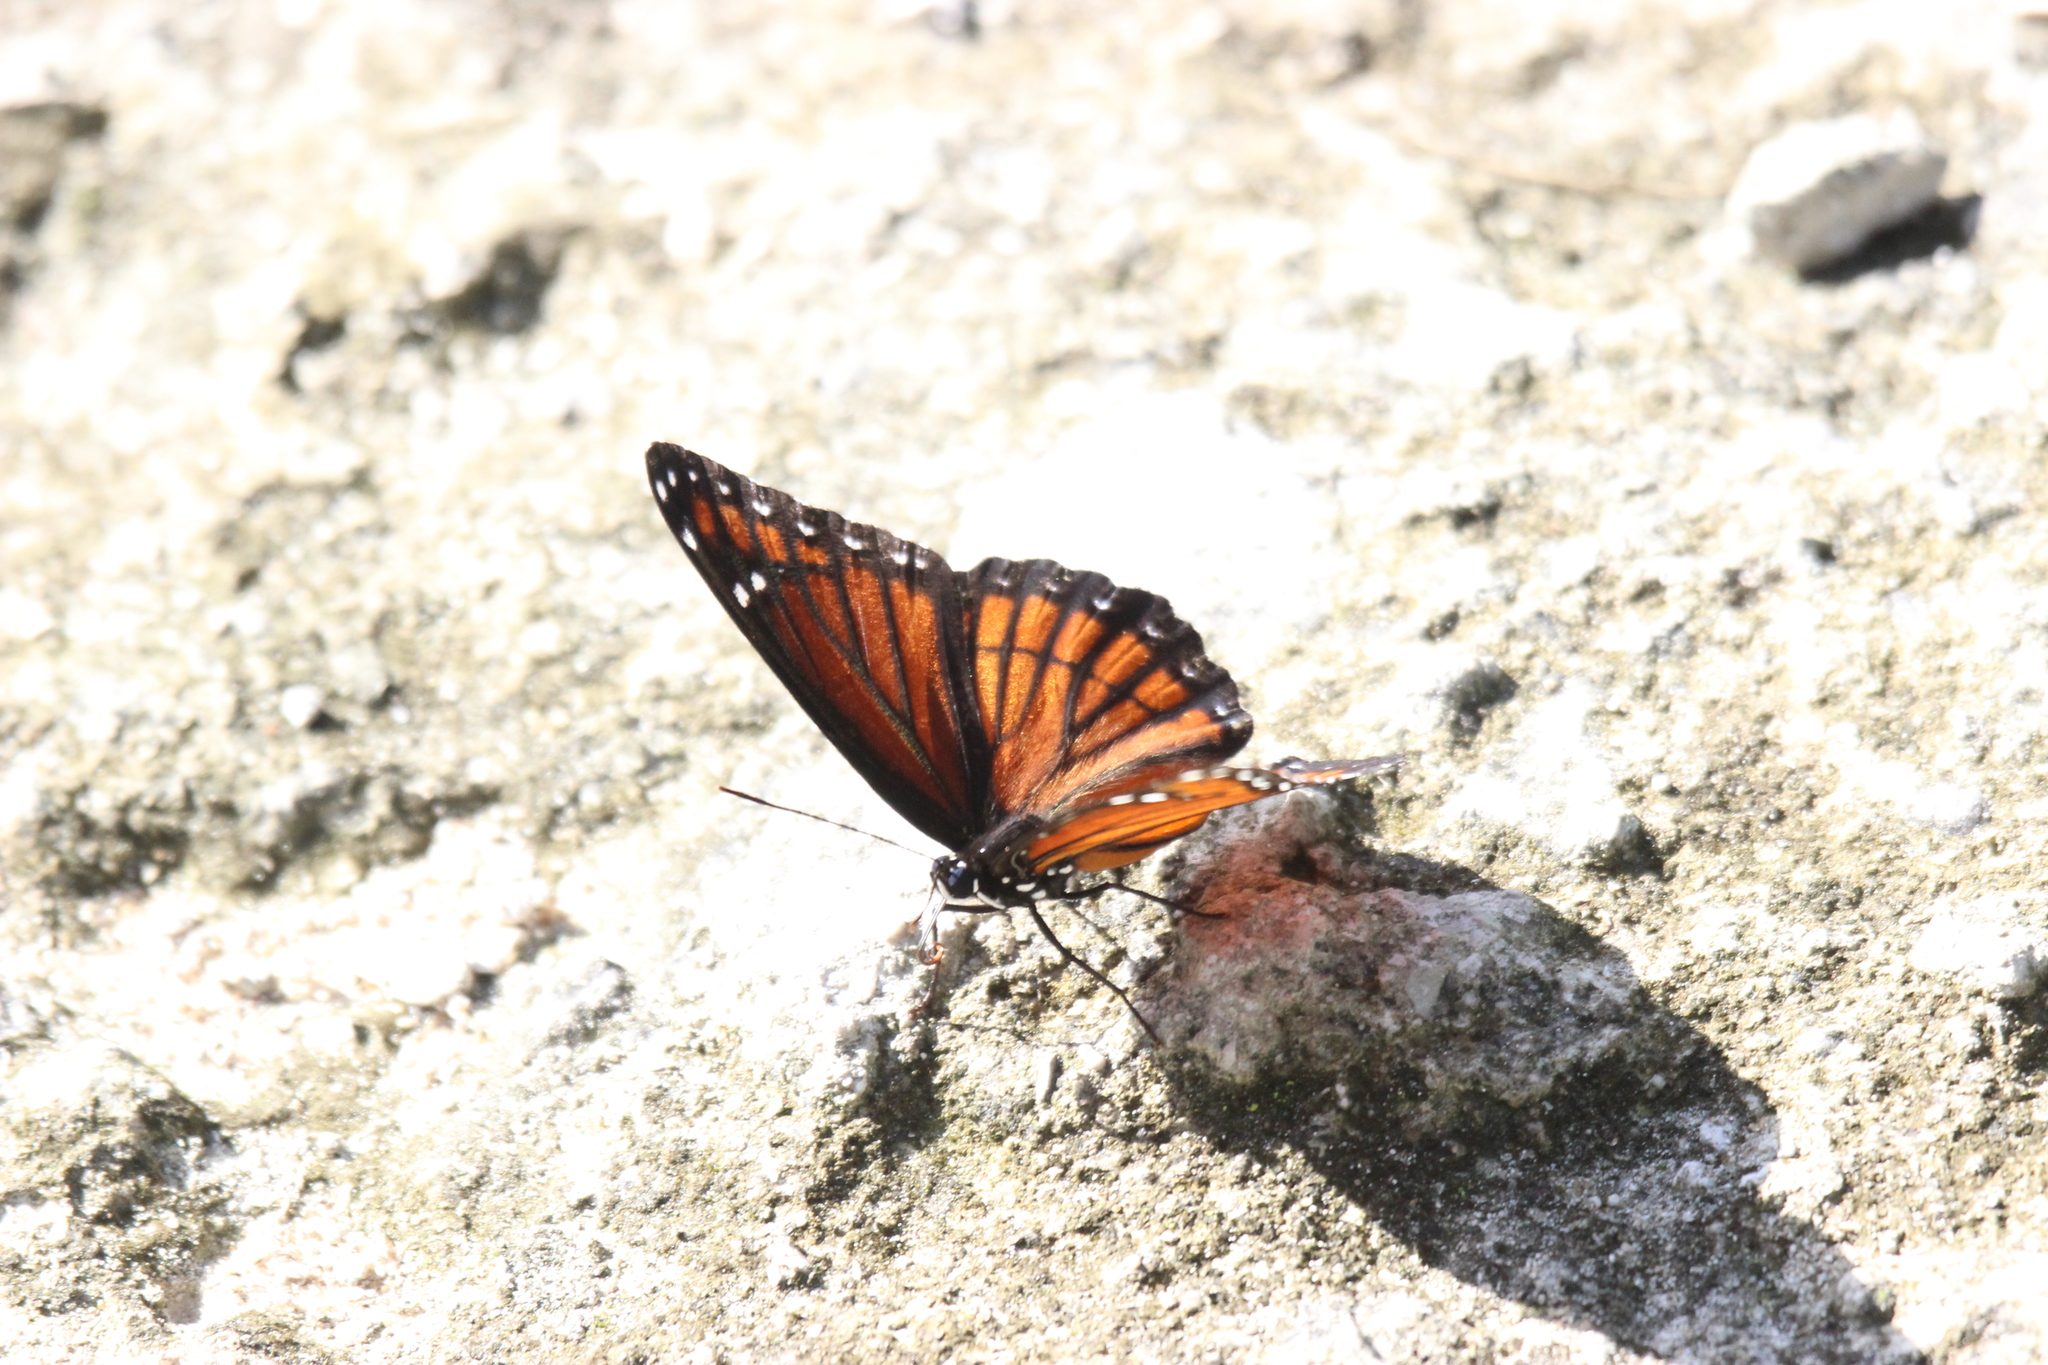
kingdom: Animalia
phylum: Arthropoda
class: Insecta
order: Lepidoptera
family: Nymphalidae
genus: Limenitis
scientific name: Limenitis archippus
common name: Viceroy
